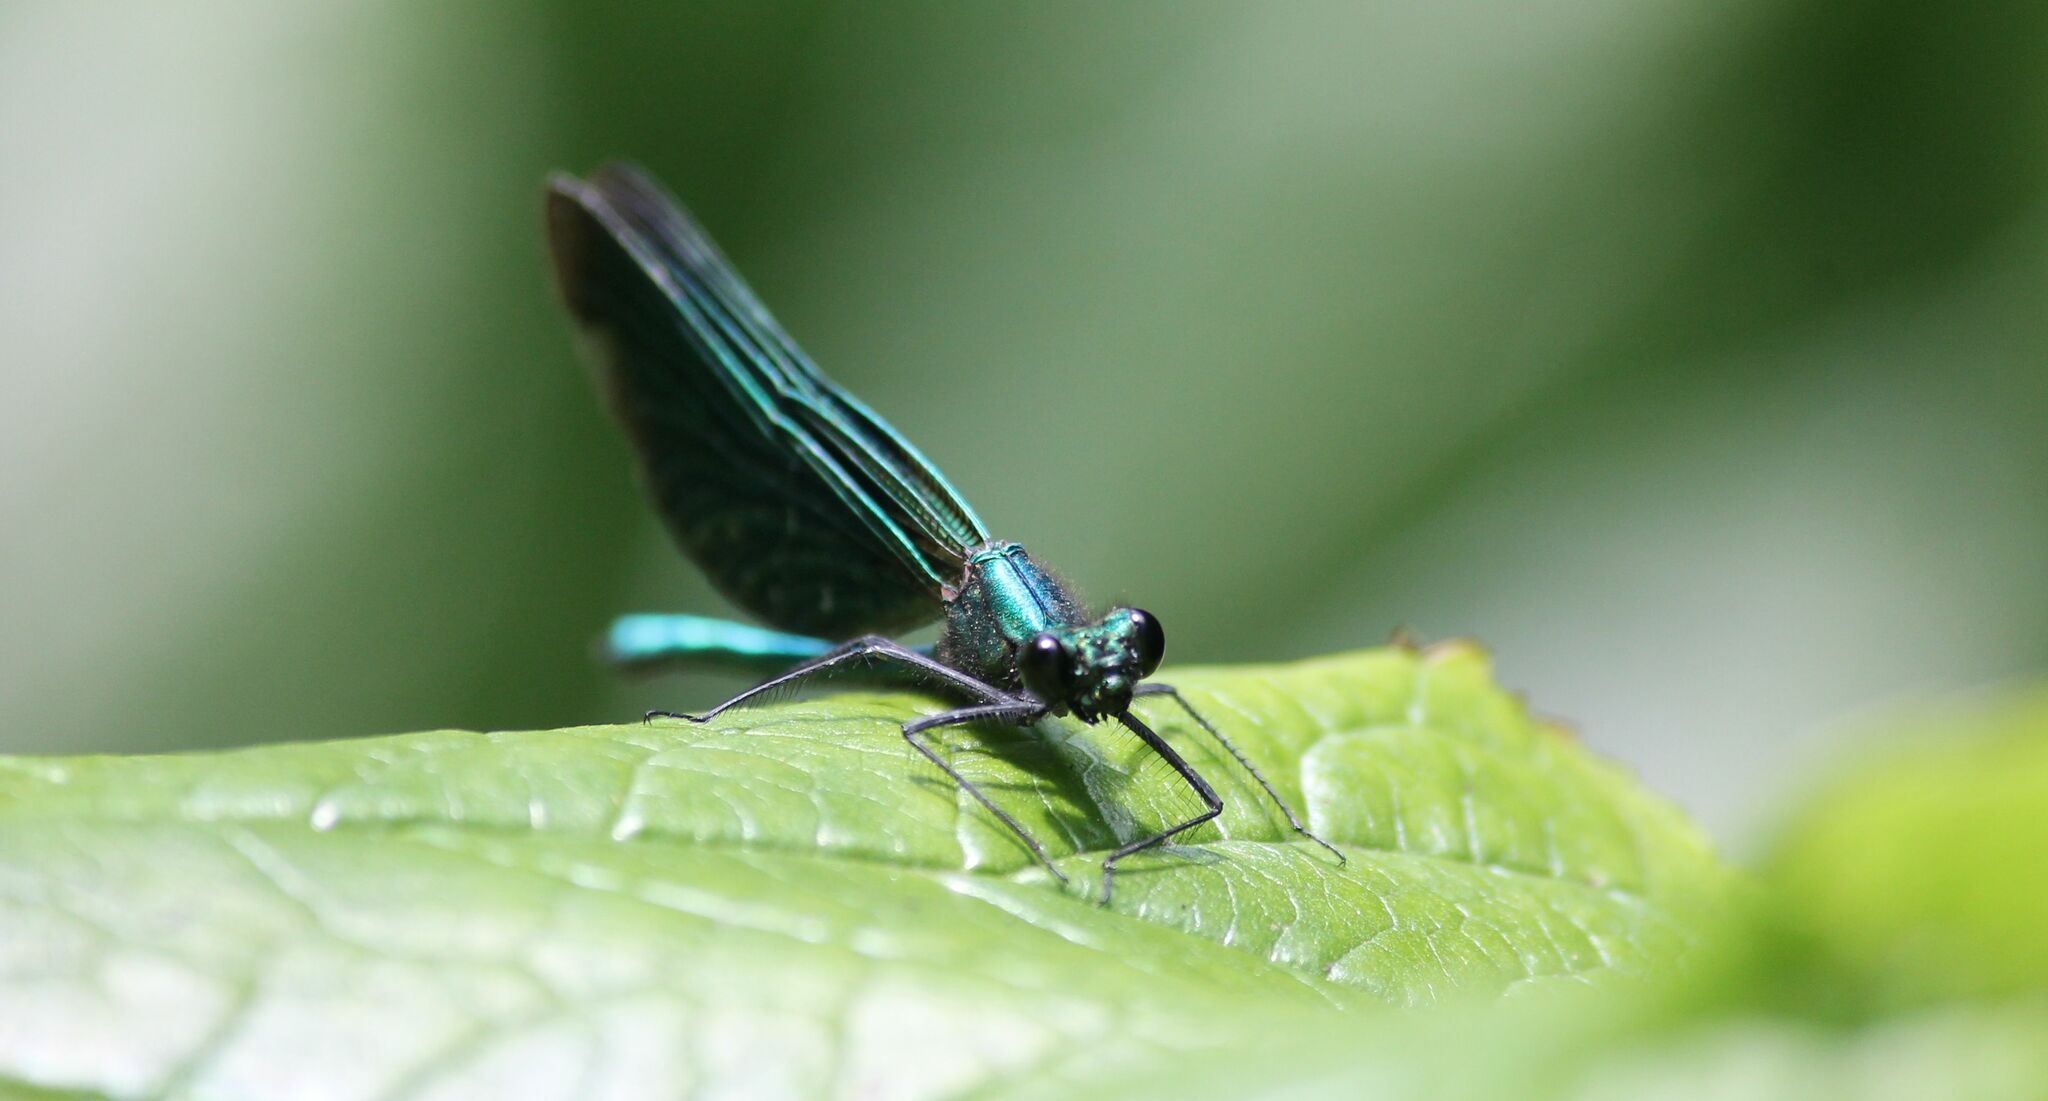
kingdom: Animalia
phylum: Arthropoda
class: Insecta
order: Odonata
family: Calopterygidae
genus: Calopteryx
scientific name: Calopteryx virgo
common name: Beautiful demoiselle
